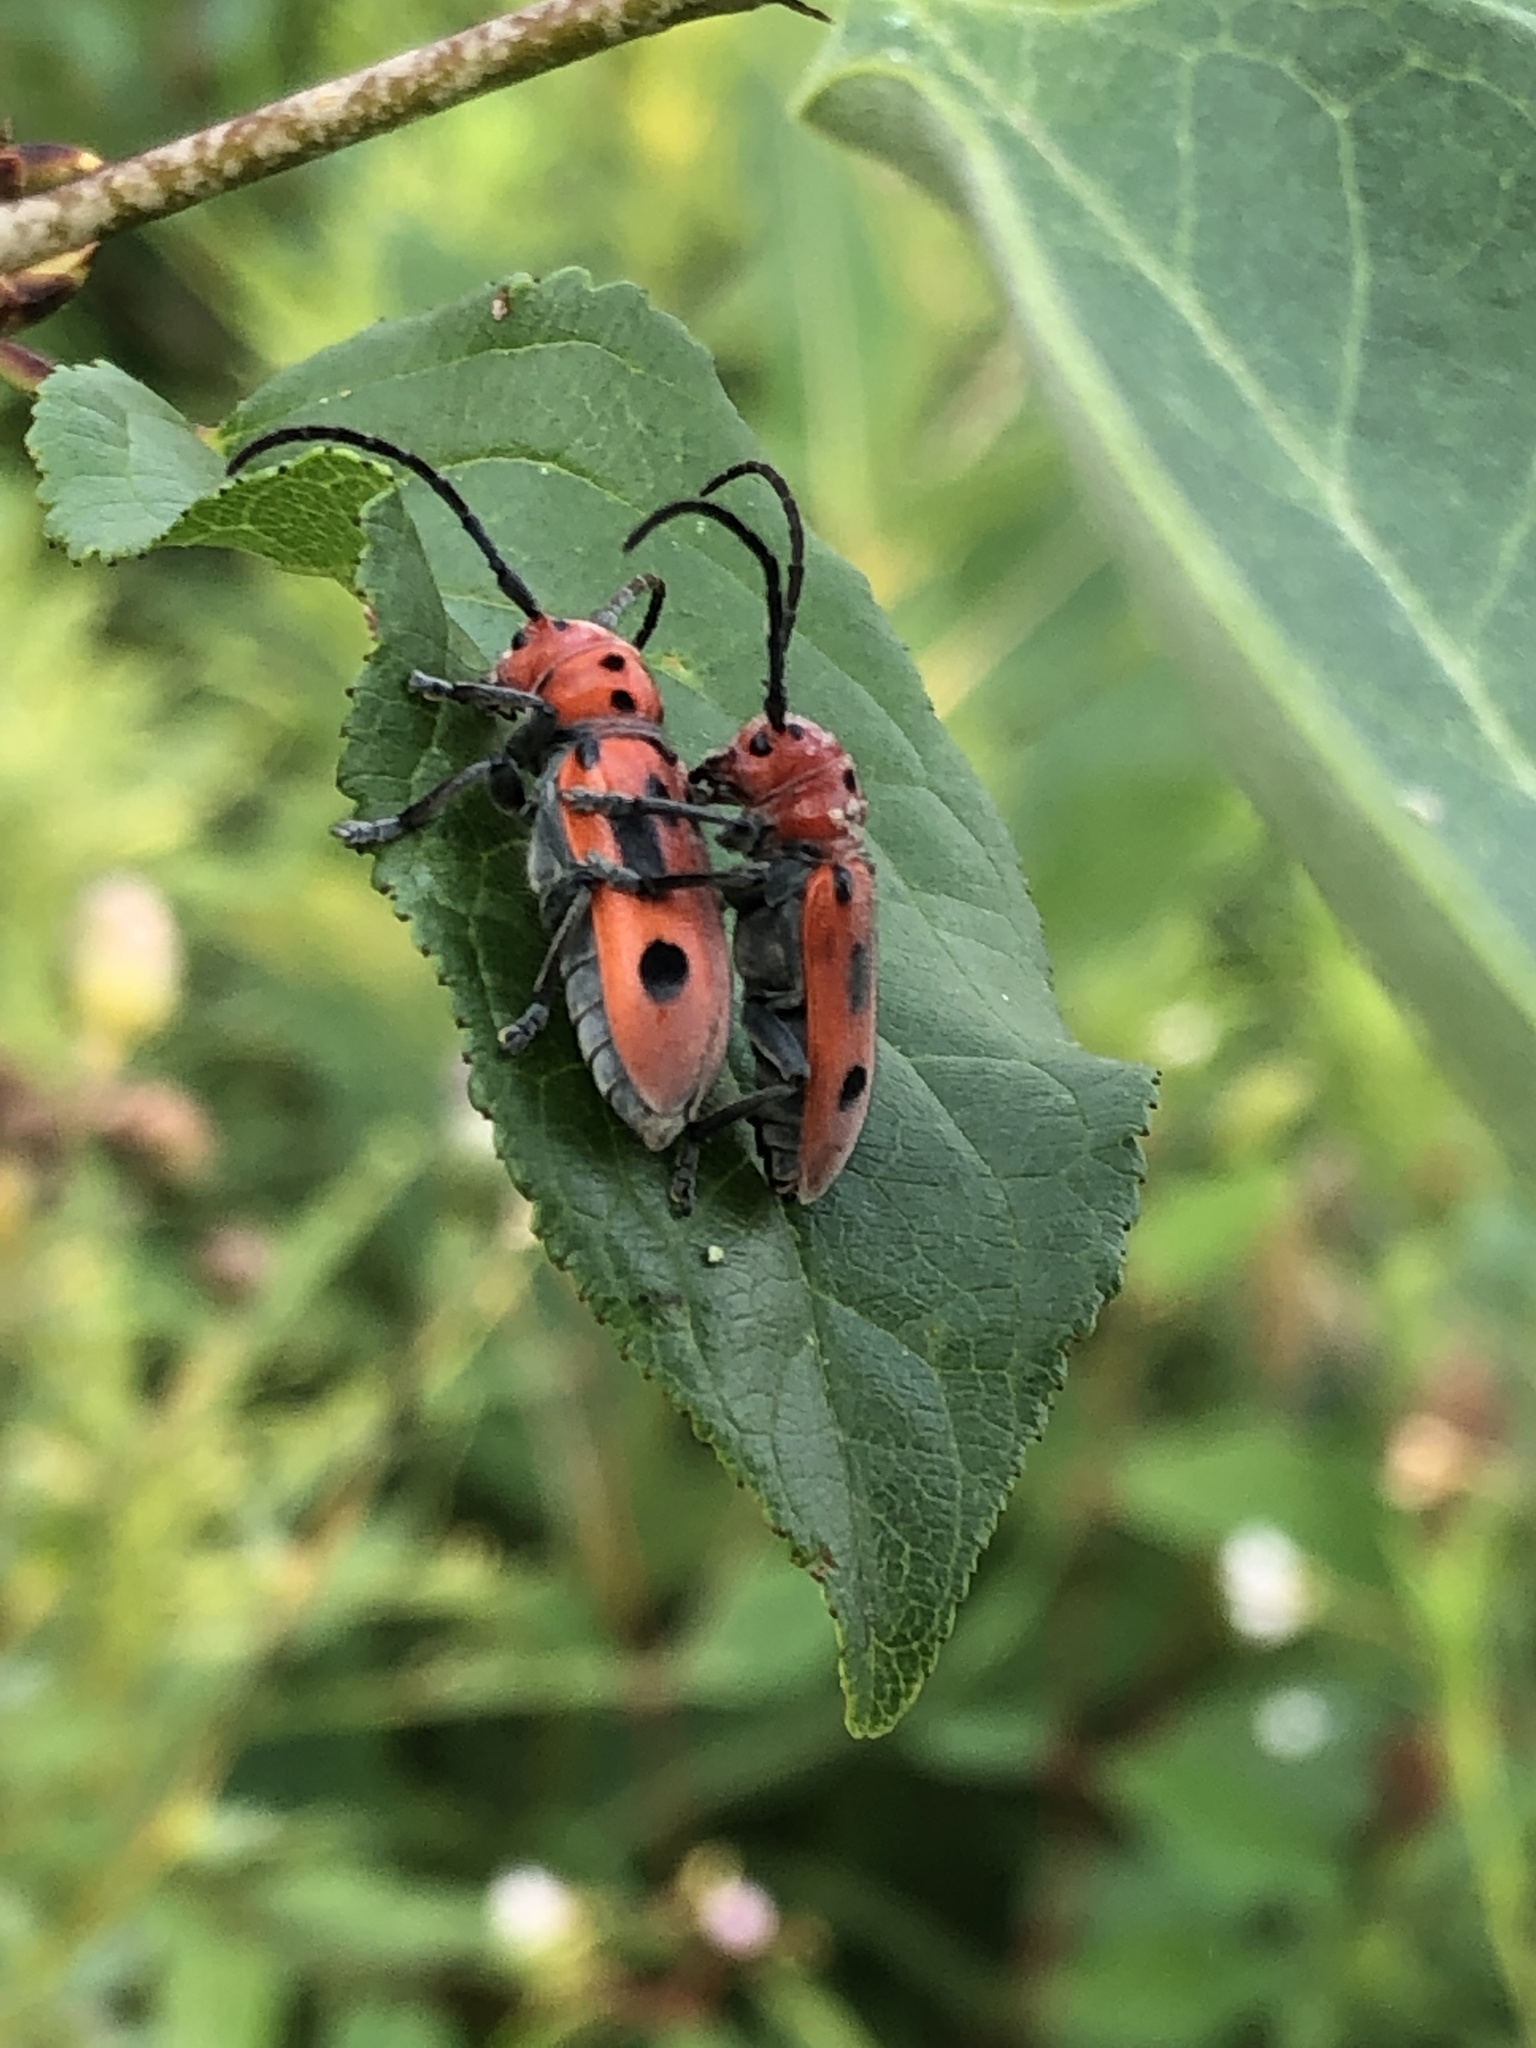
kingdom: Animalia
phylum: Arthropoda
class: Insecta
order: Coleoptera
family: Cerambycidae
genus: Tetraopes
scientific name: Tetraopes tetrophthalmus
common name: Red milkweed beetle
